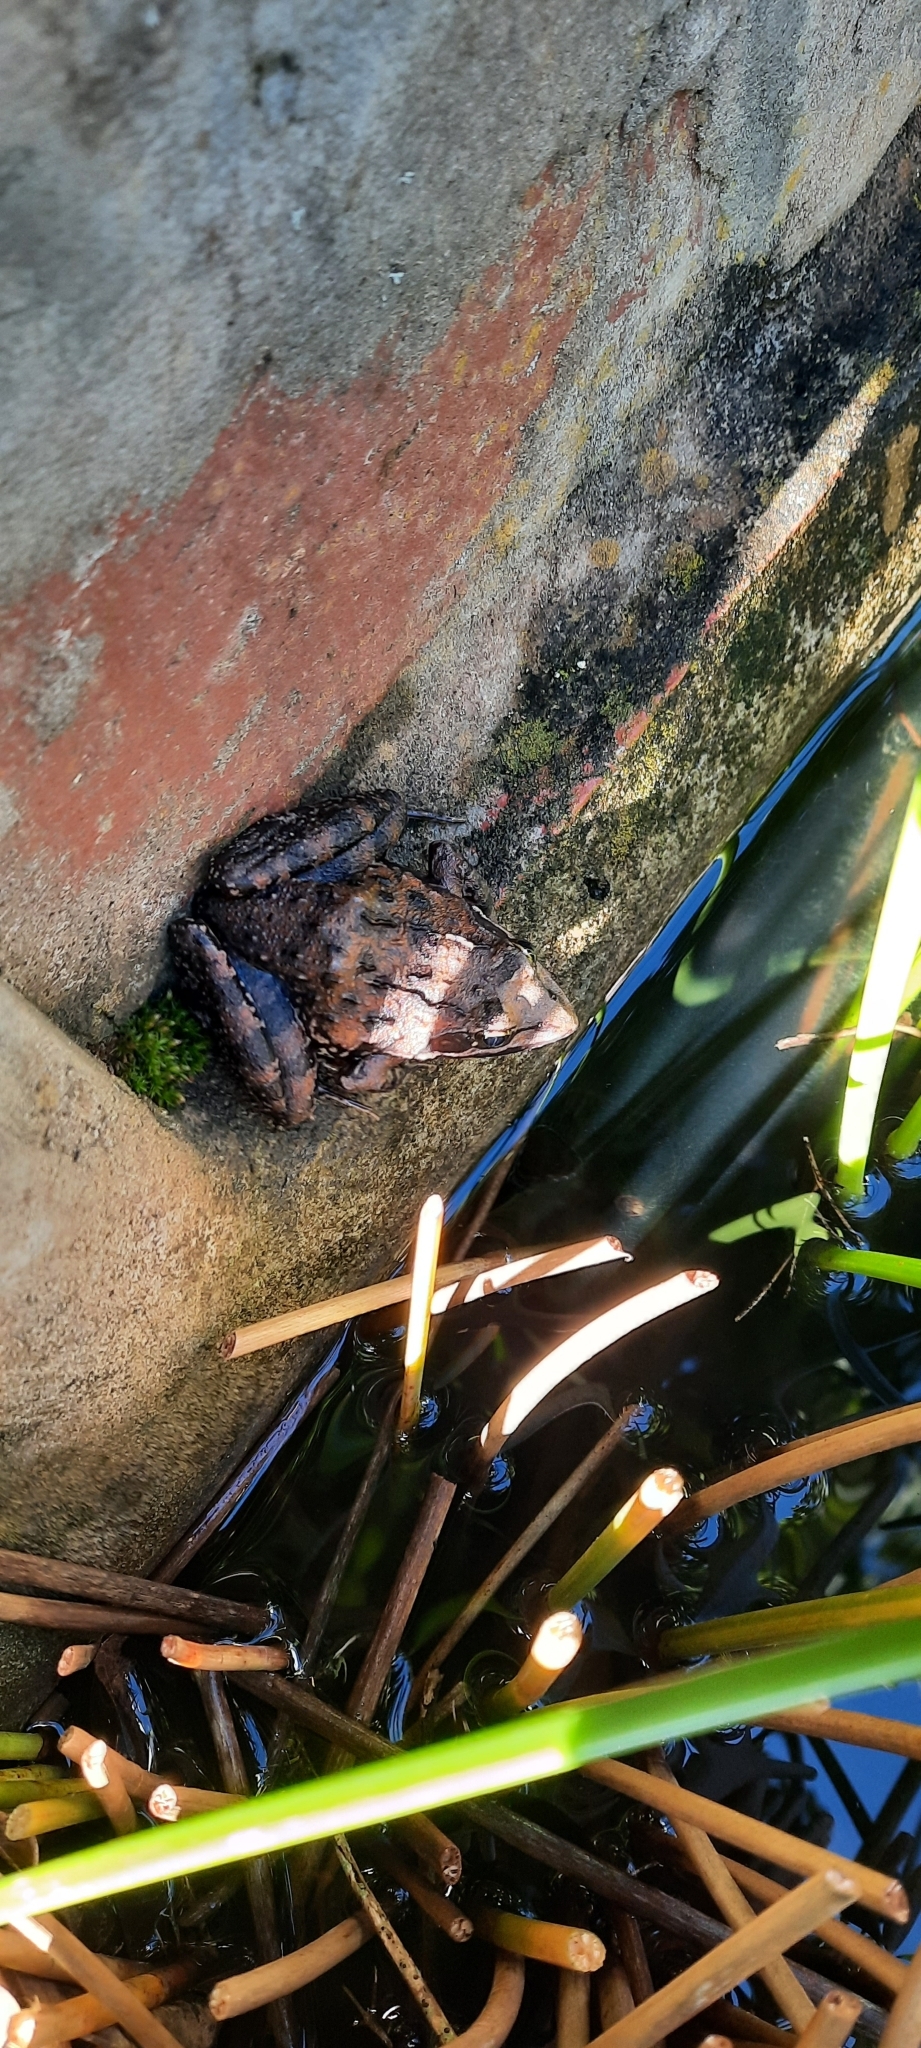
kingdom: Animalia
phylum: Chordata
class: Amphibia
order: Anura
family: Pyxicephalidae
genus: Amietia
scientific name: Amietia fuscigula
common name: Cape rana
